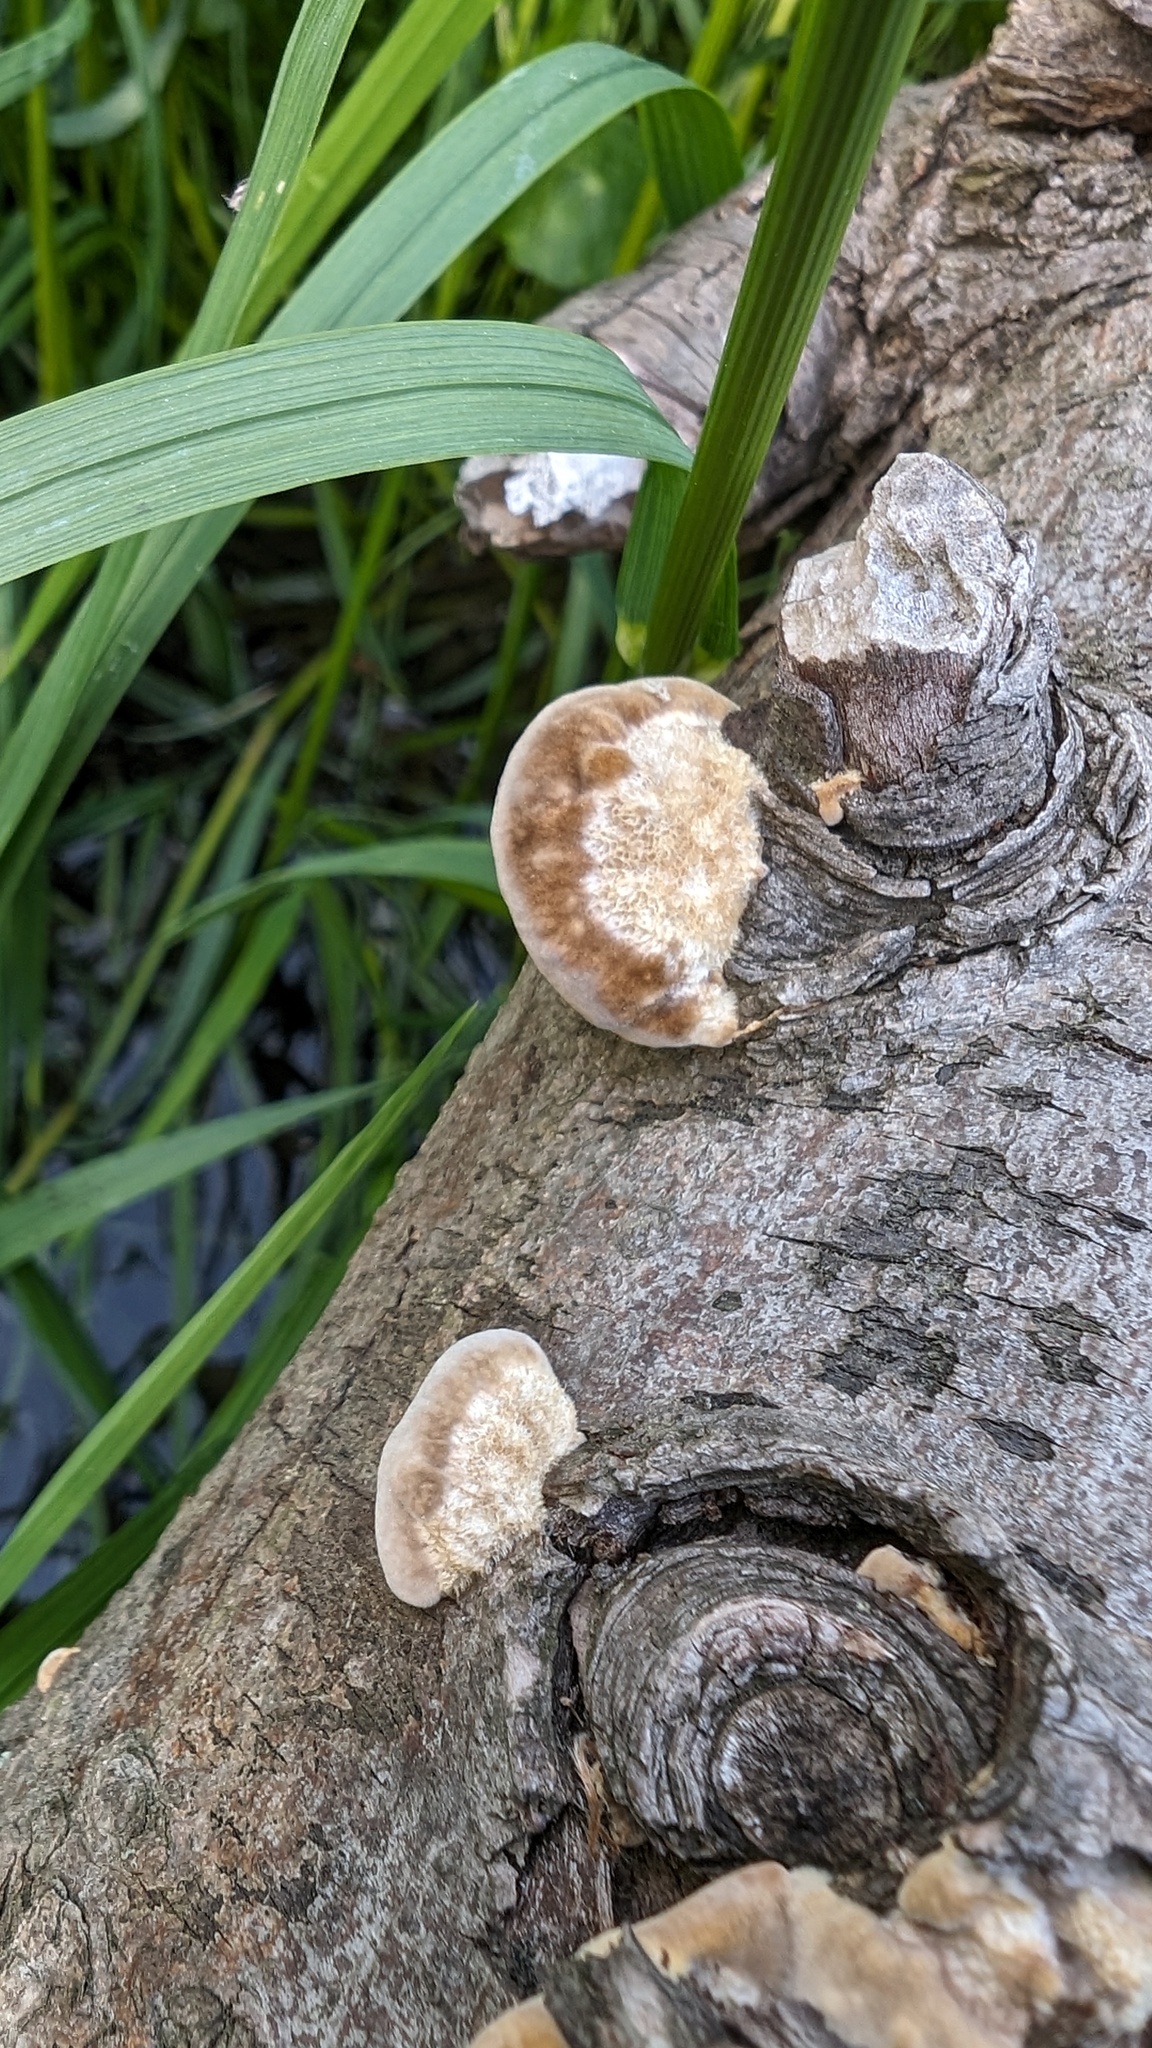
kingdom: Fungi
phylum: Basidiomycota
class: Agaricomycetes
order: Polyporales
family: Polyporaceae
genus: Trametes
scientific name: Trametes hirsuta
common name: Hairy bracket
